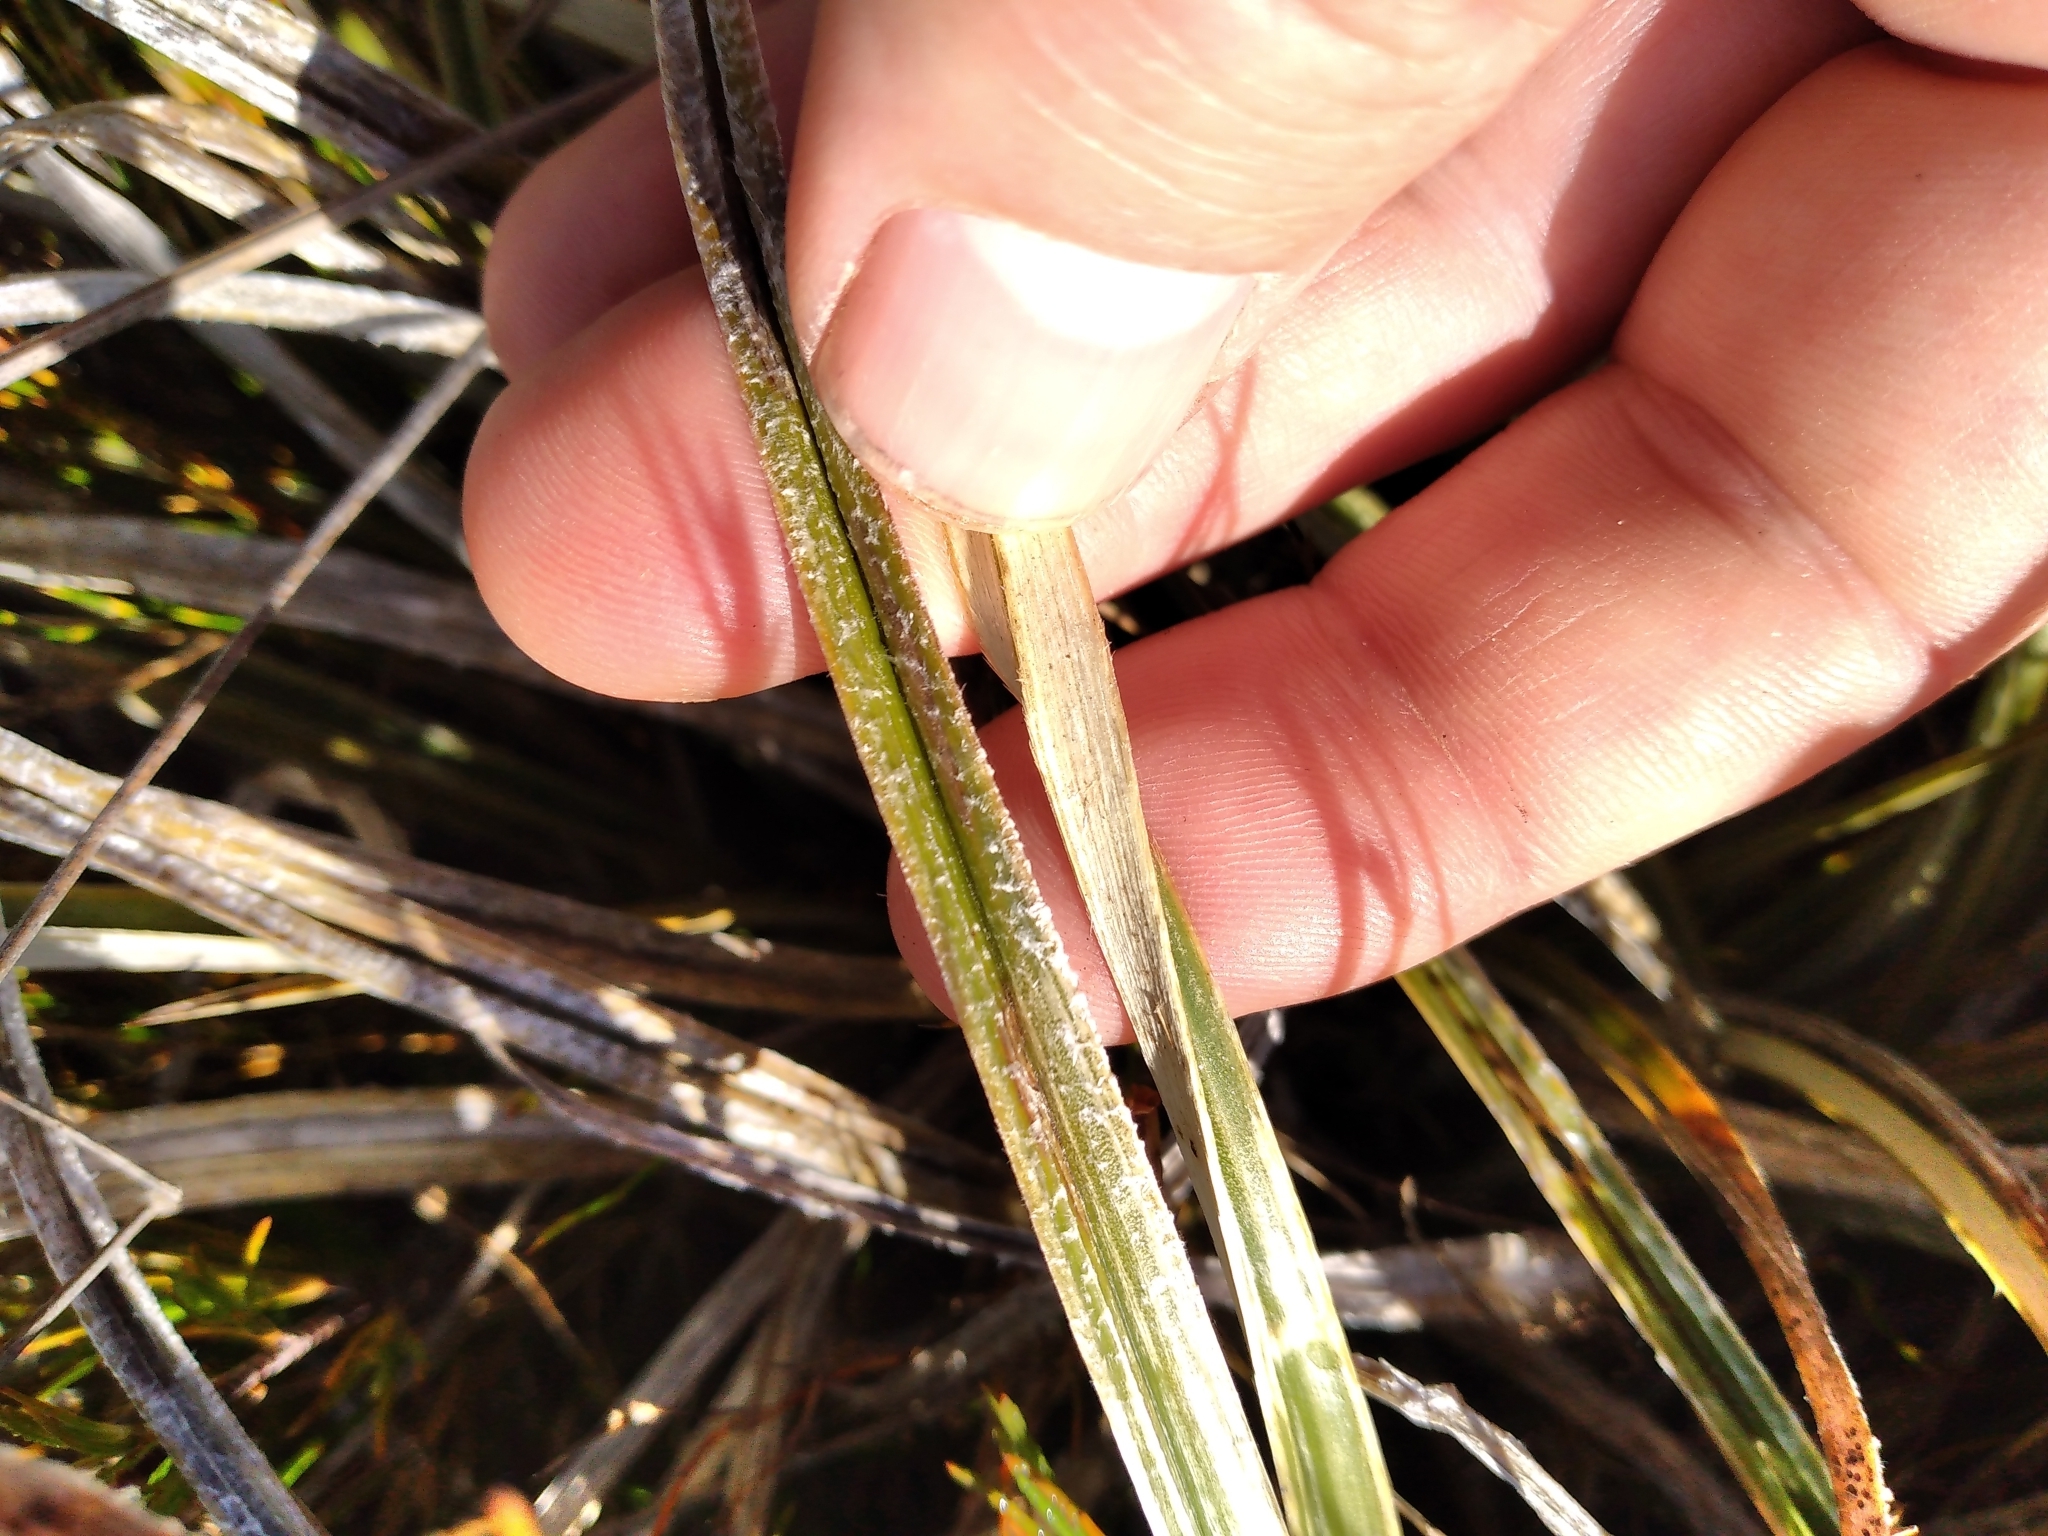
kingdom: Plantae
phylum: Tracheophyta
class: Liliopsida
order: Asparagales
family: Asteliaceae
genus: Astelia
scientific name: Astelia graminea
